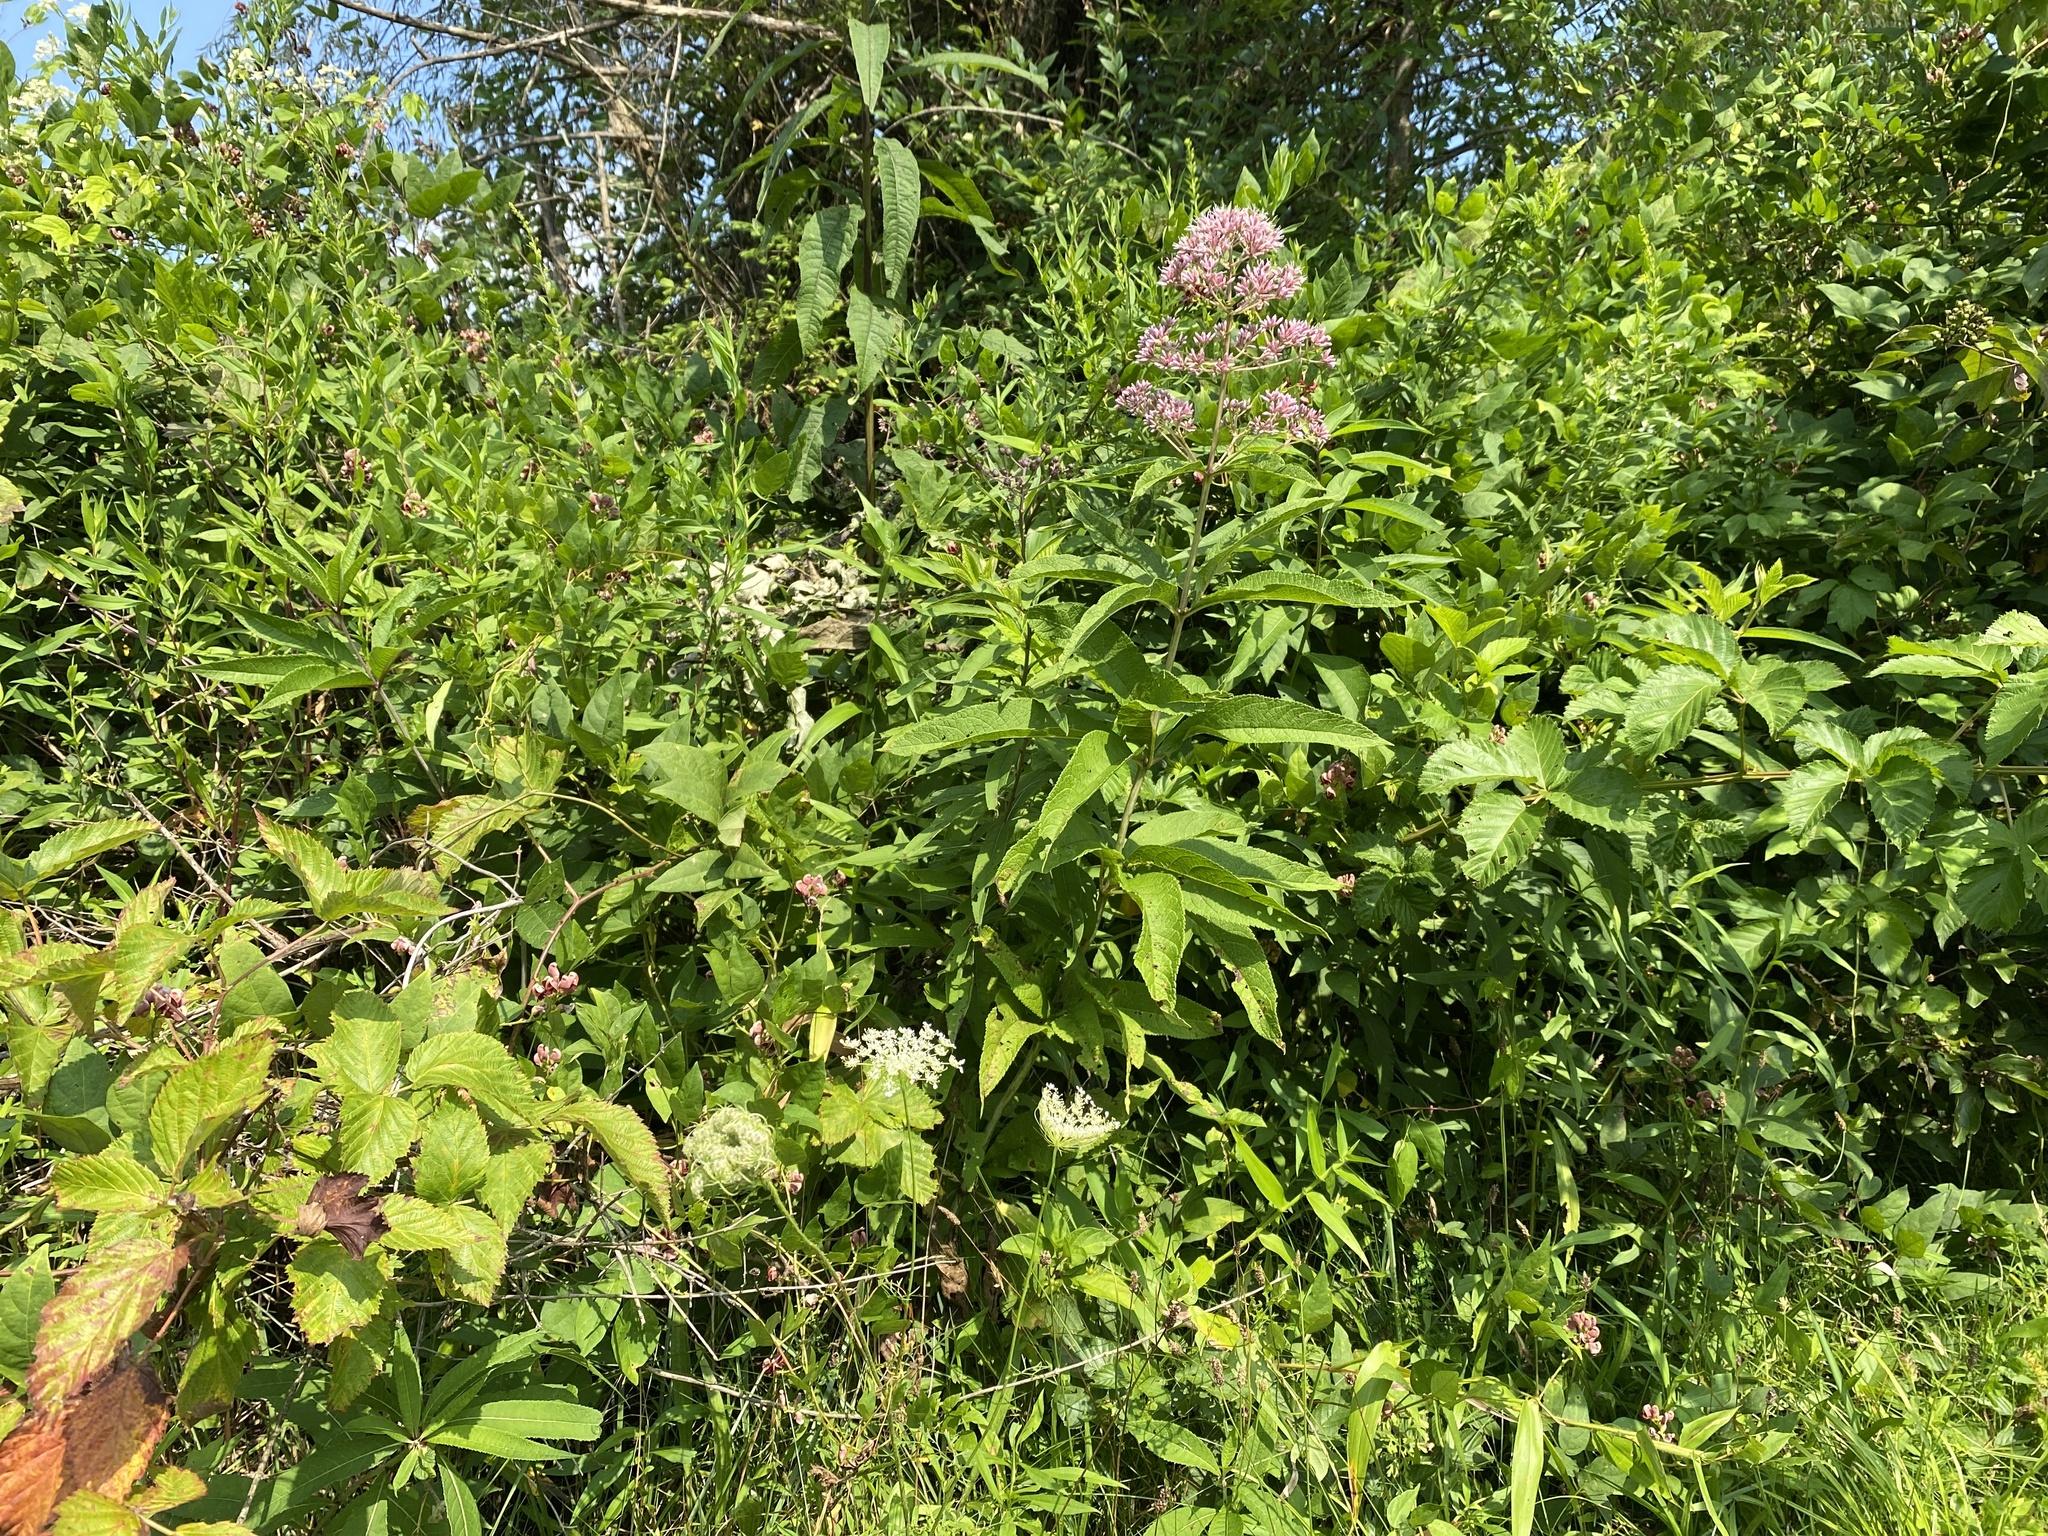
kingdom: Plantae
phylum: Tracheophyta
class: Magnoliopsida
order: Apiales
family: Apiaceae
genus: Daucus
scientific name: Daucus carota
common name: Wild carrot
